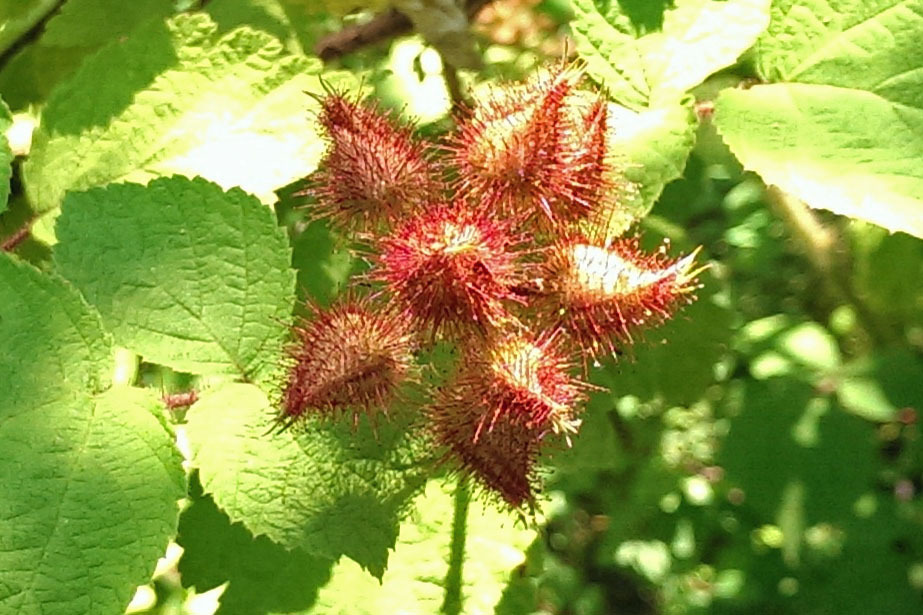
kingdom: Plantae
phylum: Tracheophyta
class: Magnoliopsida
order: Rosales
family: Rosaceae
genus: Rubus
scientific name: Rubus phoenicolasius
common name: Japanese wineberry
